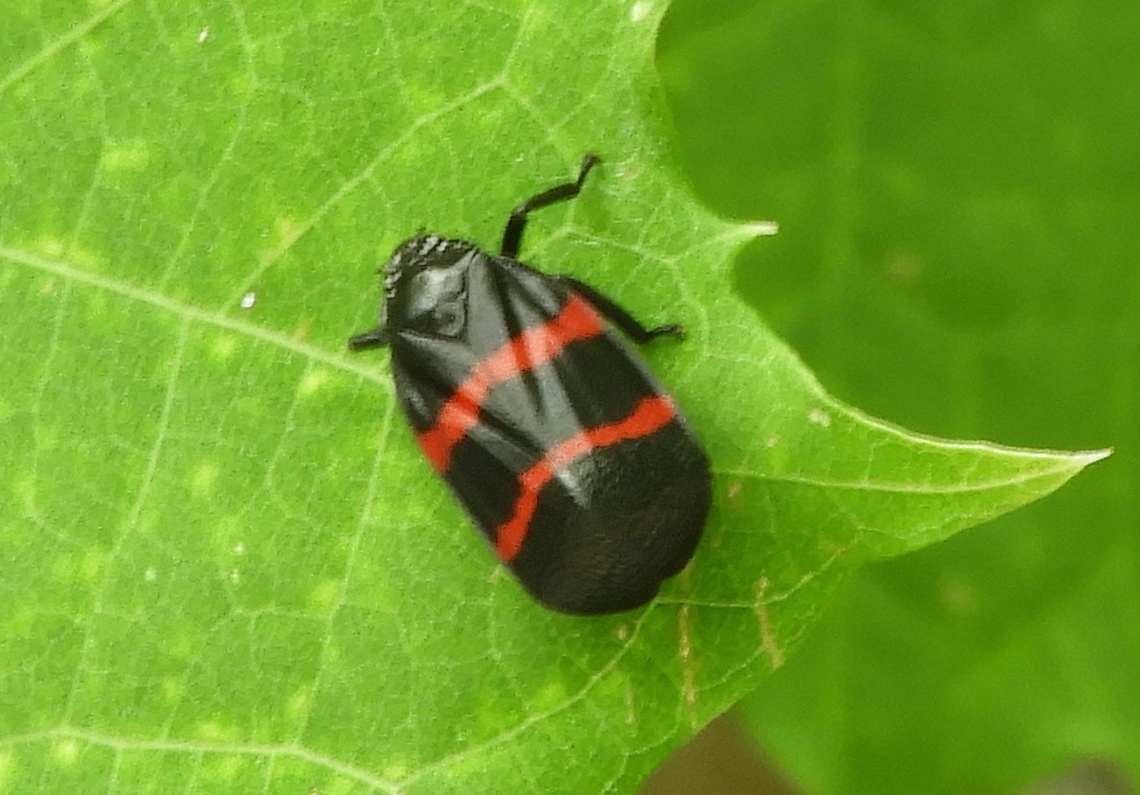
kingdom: Animalia
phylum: Arthropoda
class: Insecta
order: Hemiptera
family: Cercopidae
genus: Huaina
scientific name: Huaina inca
